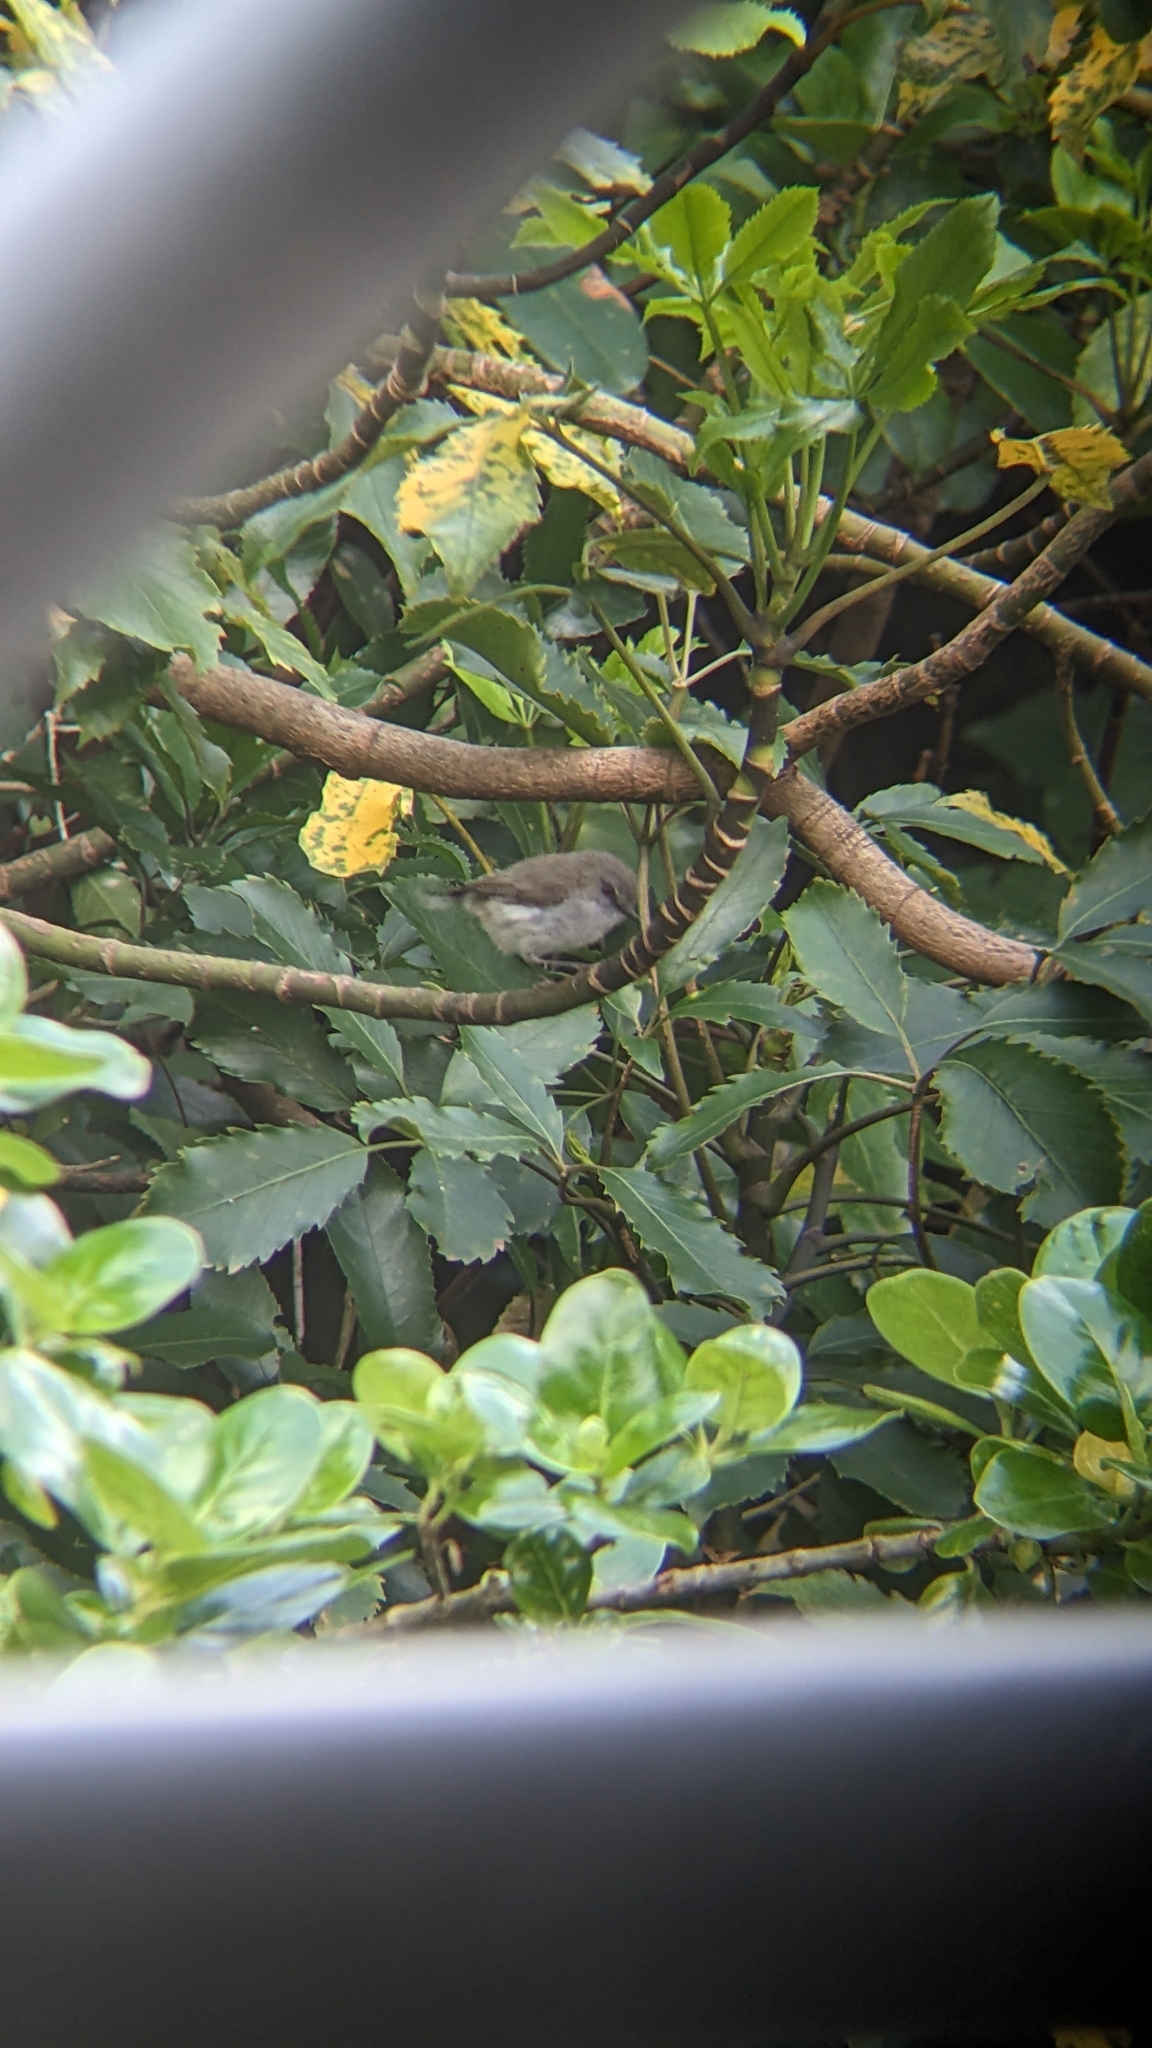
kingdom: Animalia
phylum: Chordata
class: Aves
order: Passeriformes
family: Acanthizidae
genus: Gerygone
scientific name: Gerygone igata
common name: Grey gerygone
